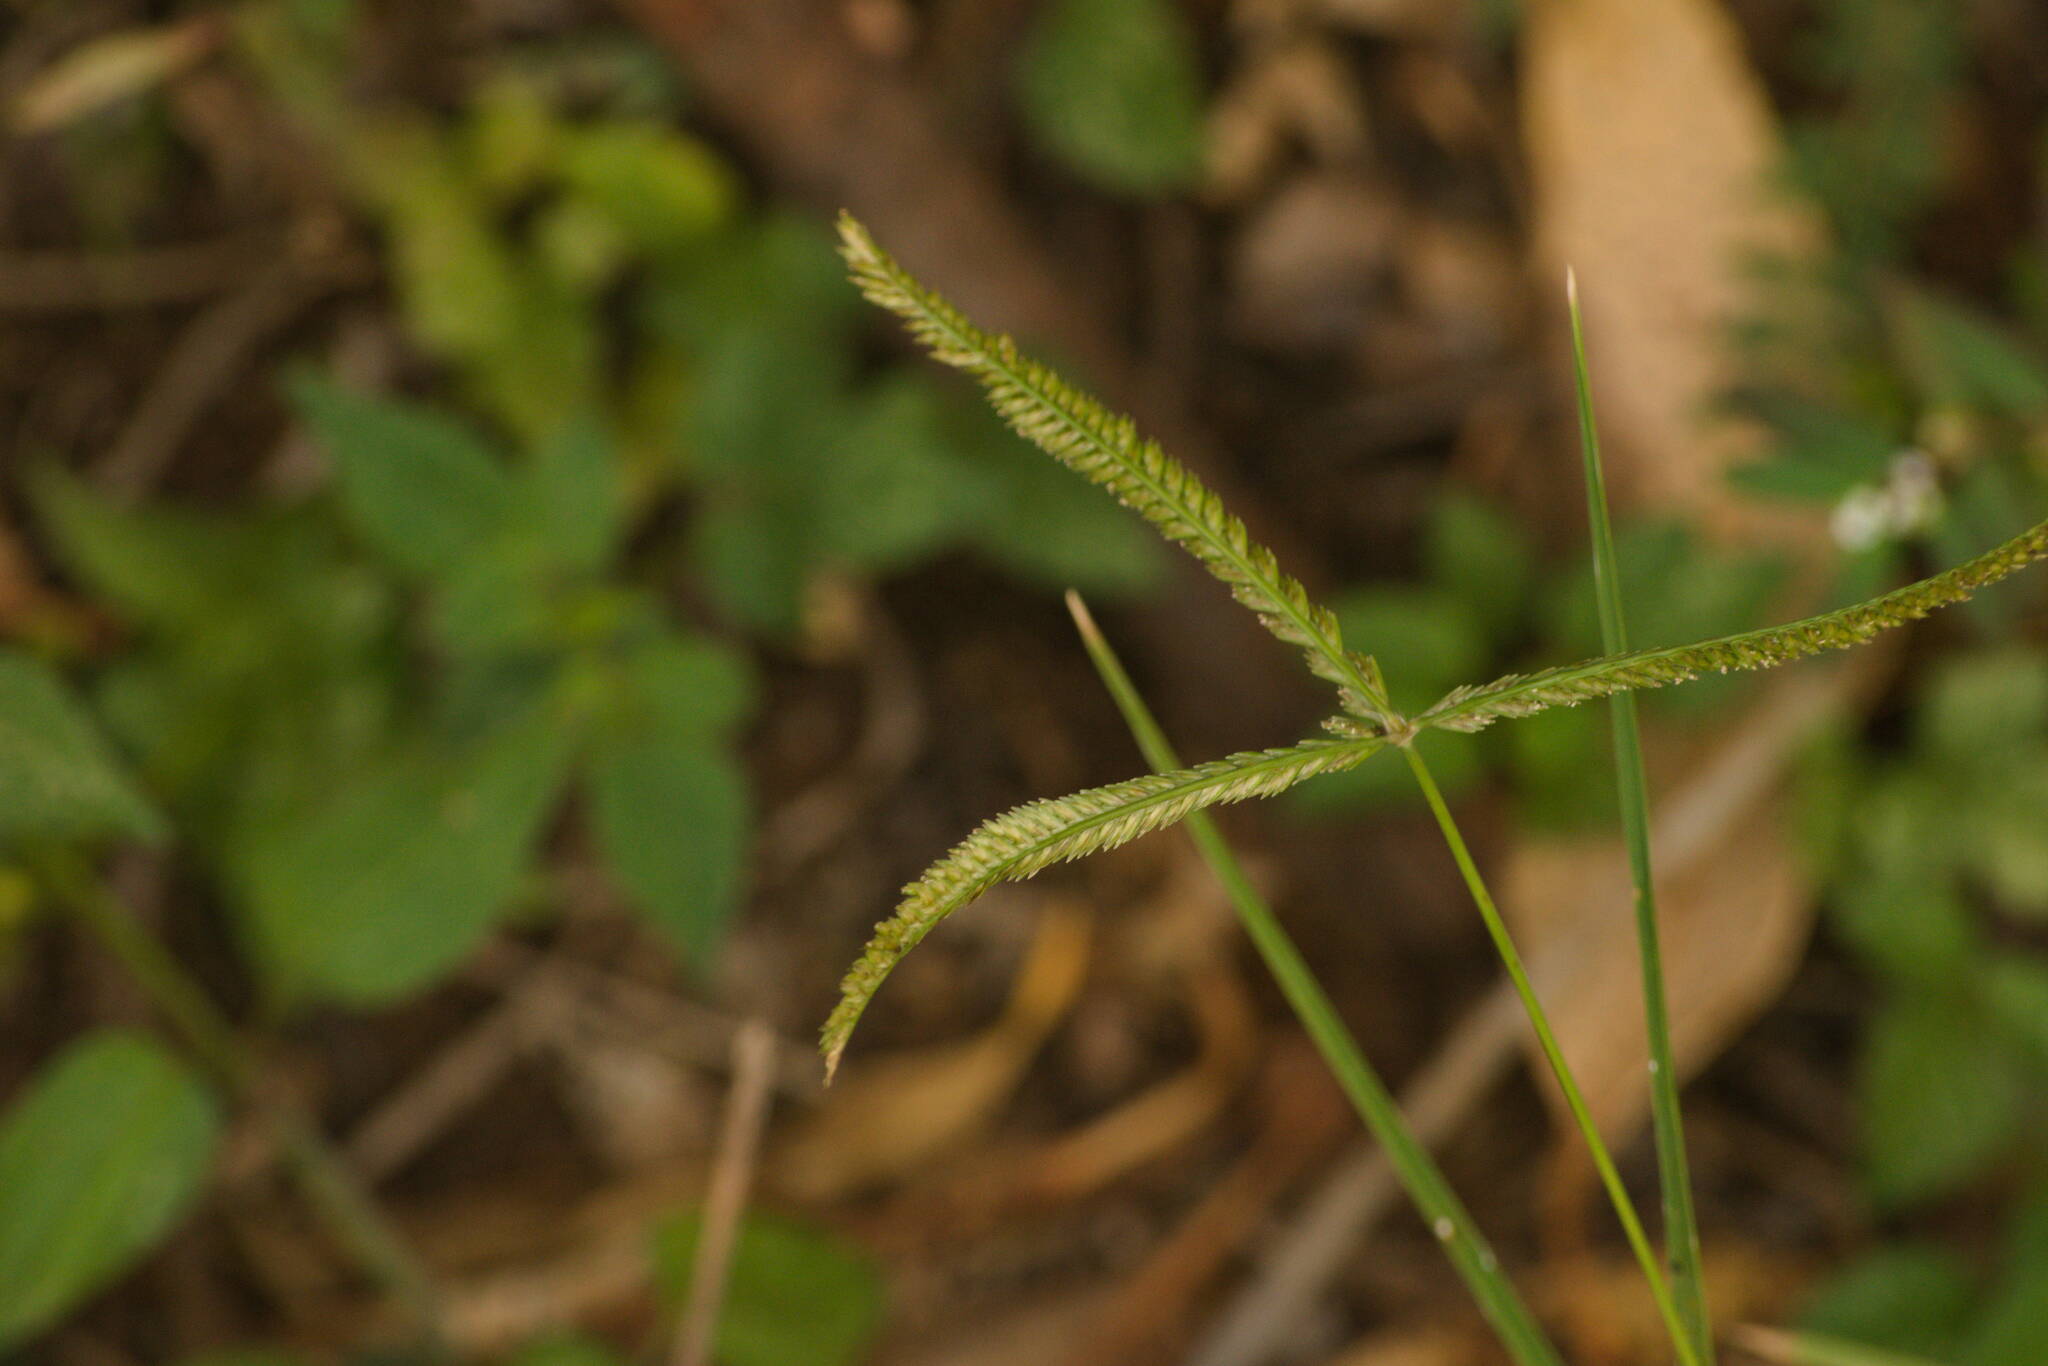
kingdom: Plantae
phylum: Tracheophyta
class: Liliopsida
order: Poales
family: Poaceae
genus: Eleusine
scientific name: Eleusine indica
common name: Yard-grass
